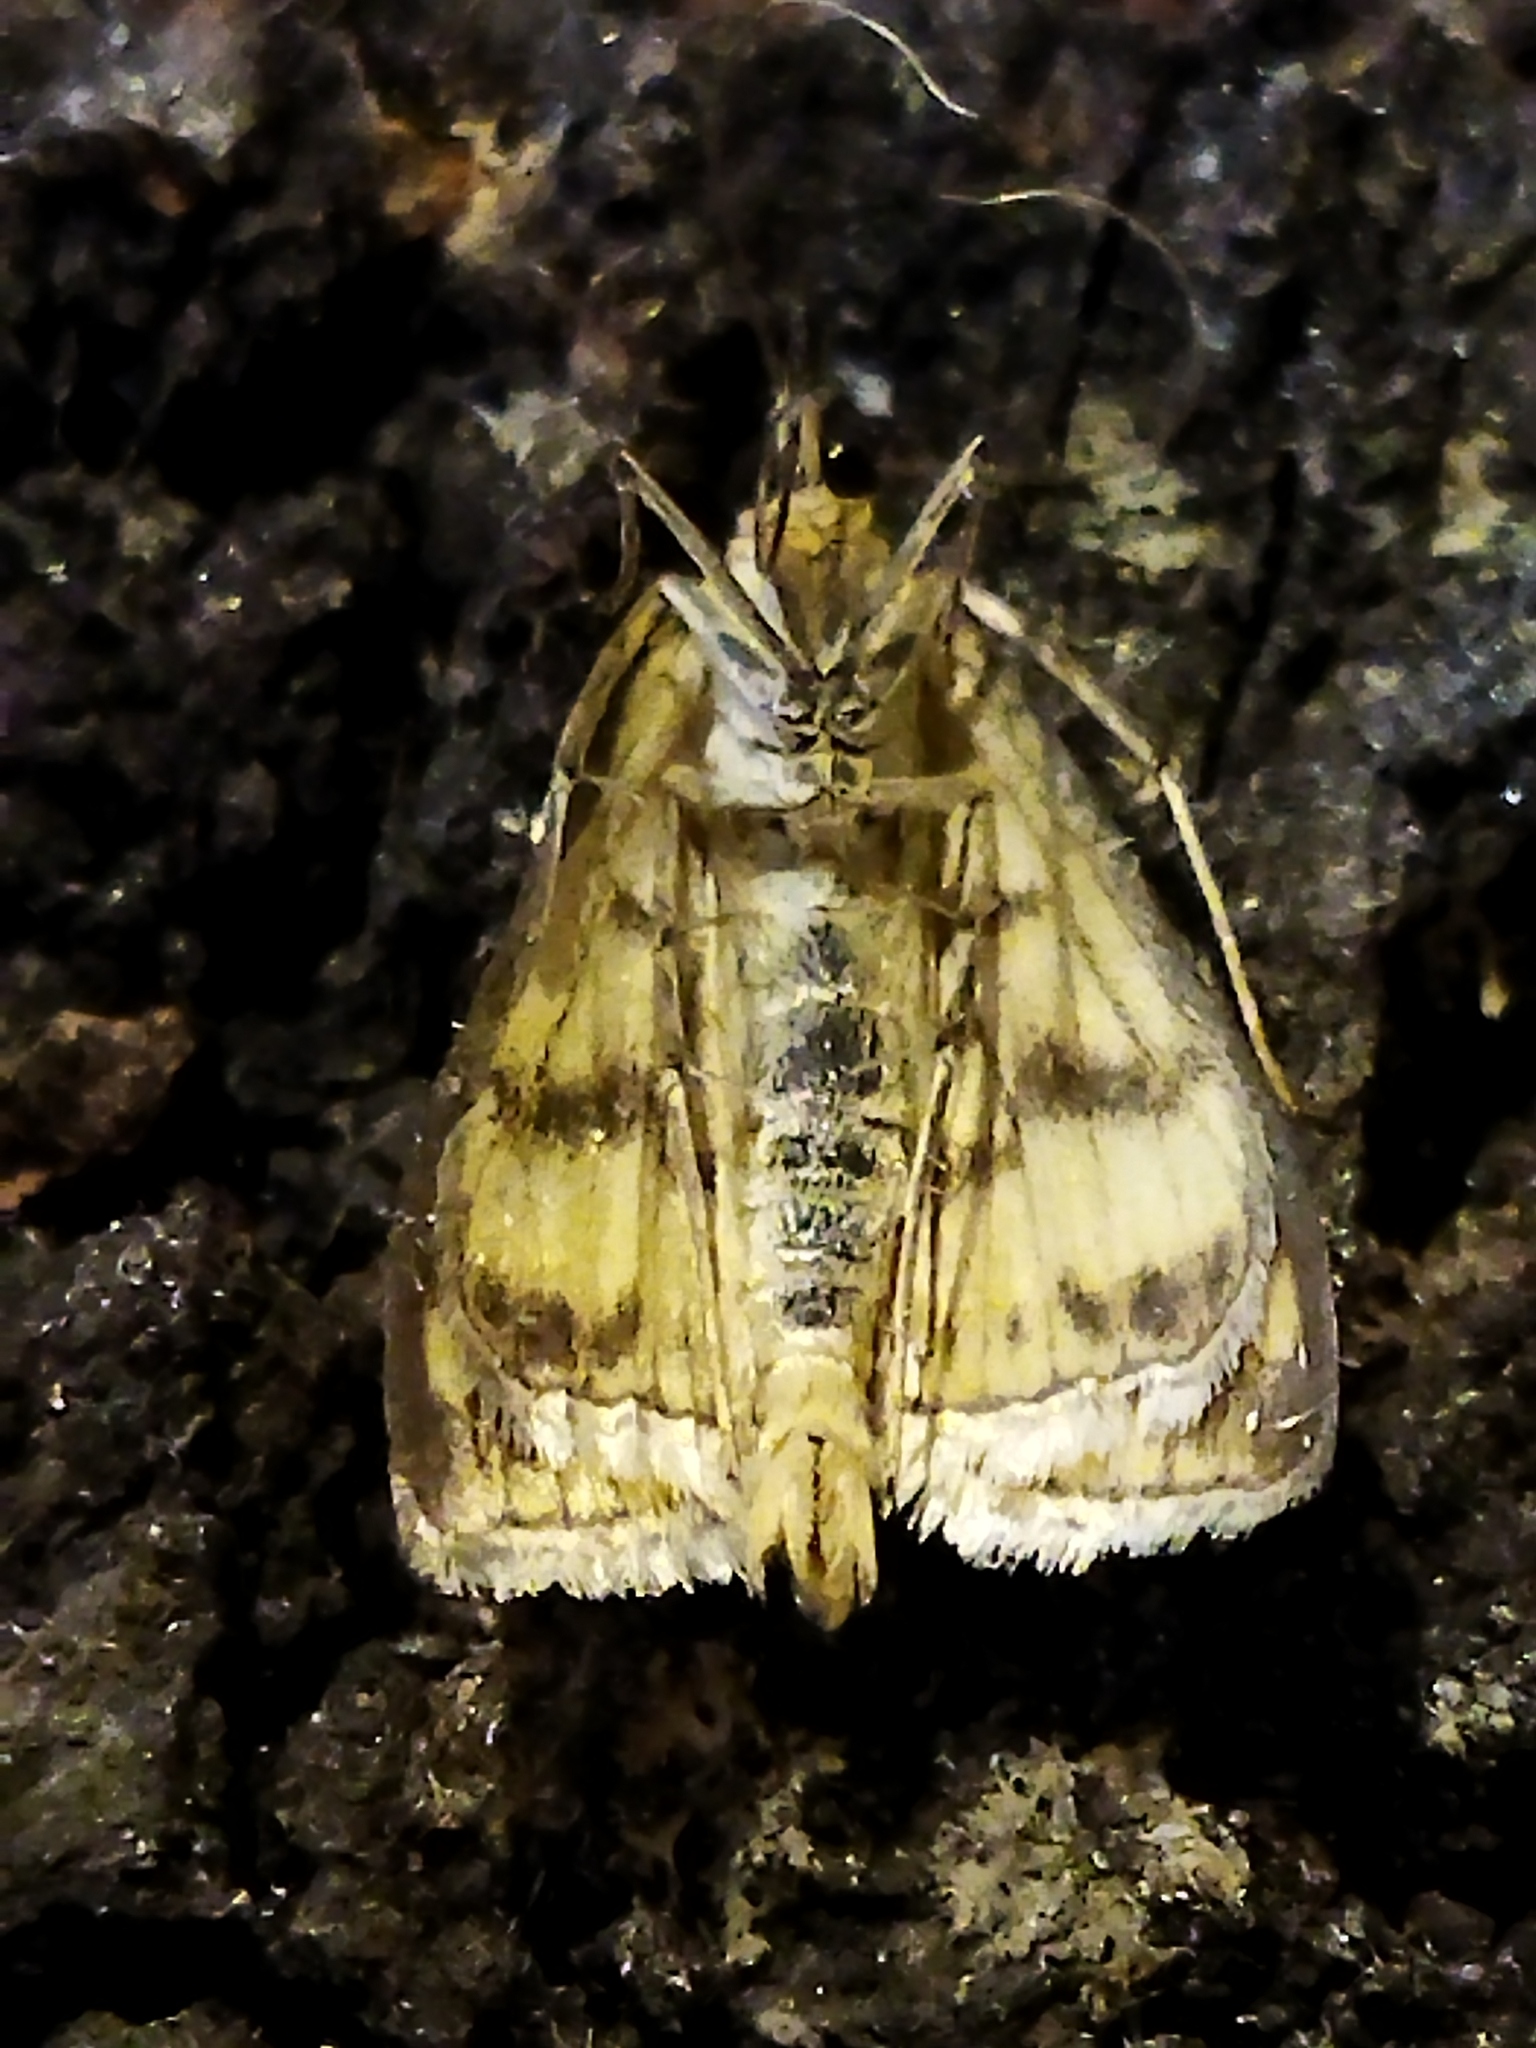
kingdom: Animalia
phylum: Arthropoda
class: Insecta
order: Lepidoptera
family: Crambidae
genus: Sitochroa
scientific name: Sitochroa verticalis
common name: Lesser pearl
